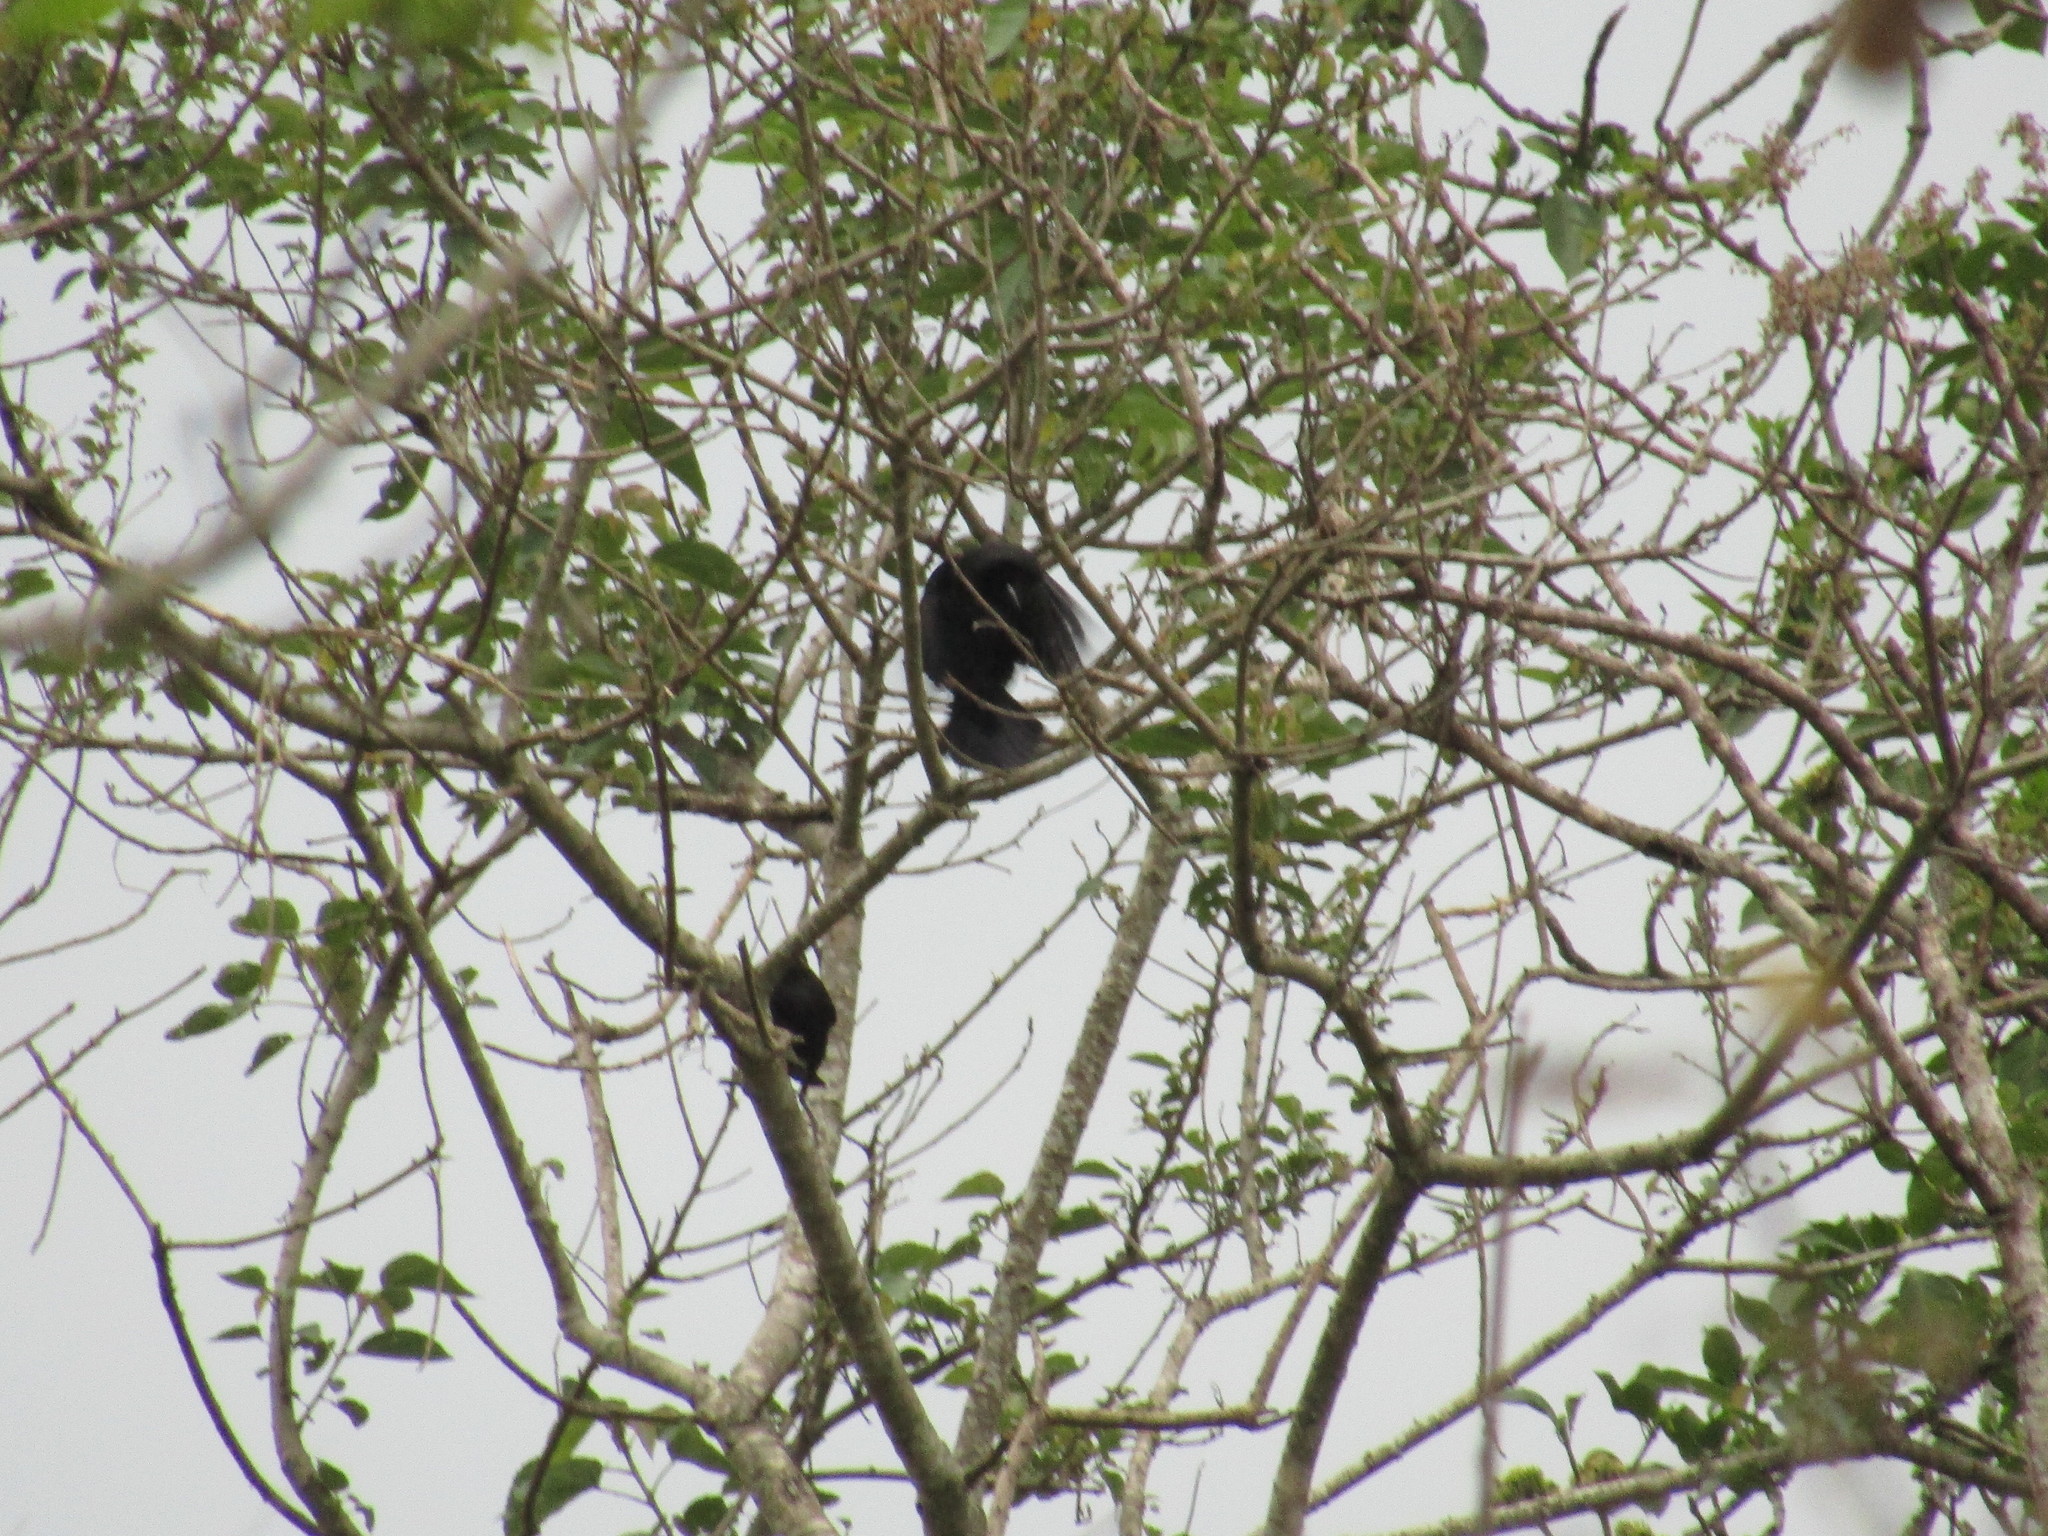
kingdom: Animalia
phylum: Chordata
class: Aves
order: Passeriformes
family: Icteridae
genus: Molothrus
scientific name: Molothrus aeneus
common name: Bronzed cowbird
